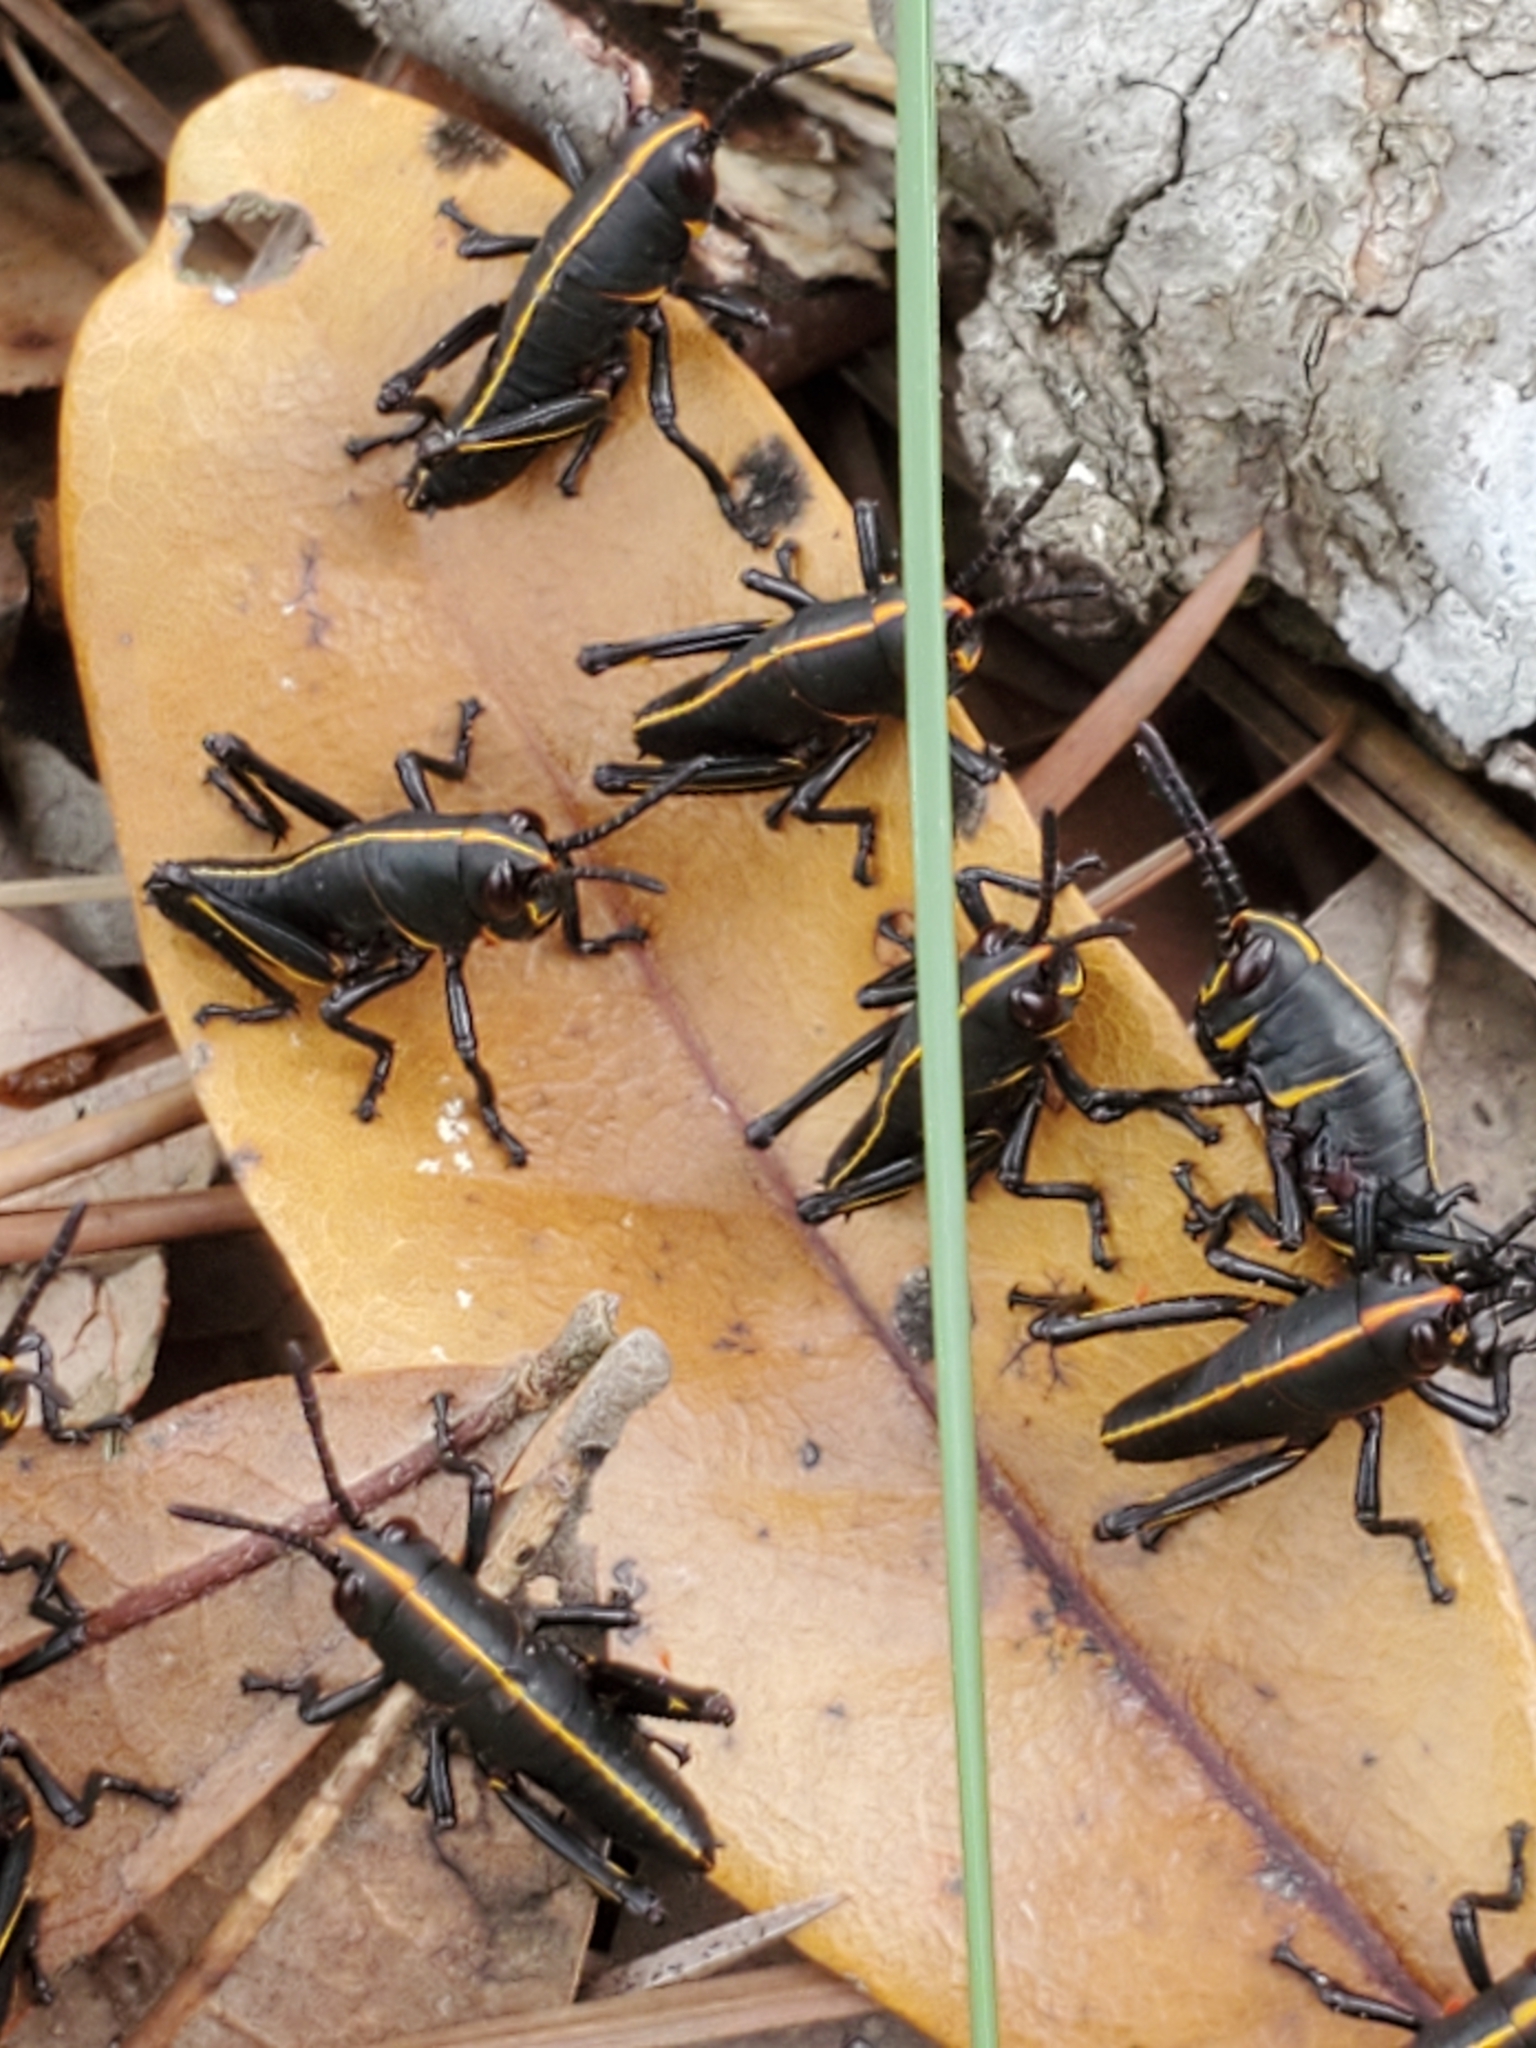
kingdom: Animalia
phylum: Arthropoda
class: Insecta
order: Orthoptera
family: Romaleidae
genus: Romalea
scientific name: Romalea microptera
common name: Eastern lubber grasshopper
